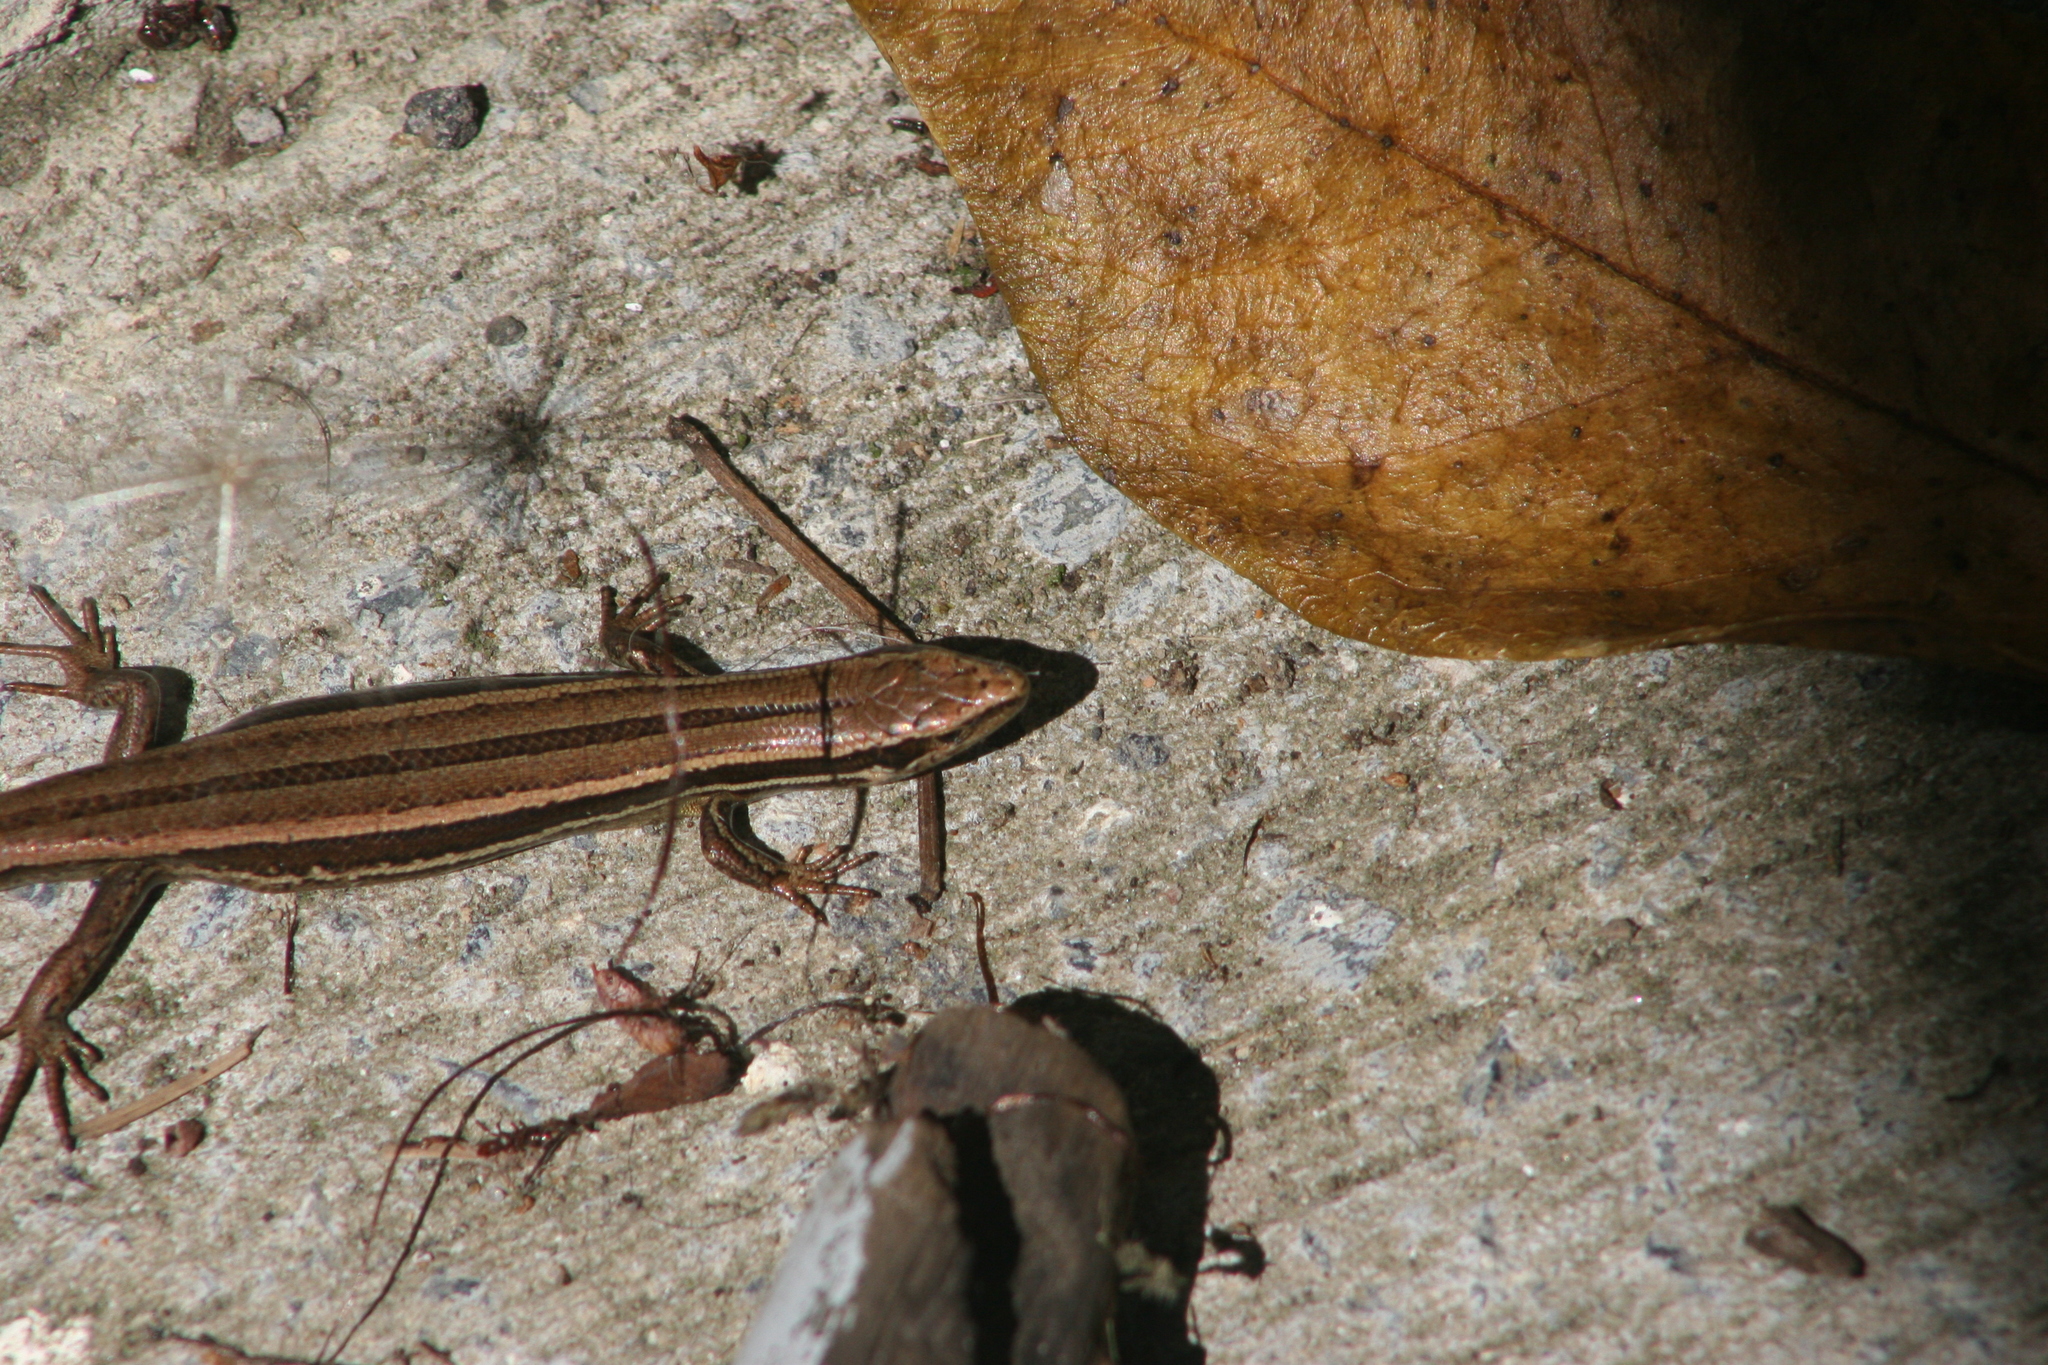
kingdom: Animalia
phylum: Chordata
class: Squamata
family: Scincidae
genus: Oligosoma
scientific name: Oligosoma polychroma
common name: Common new zealand skink
